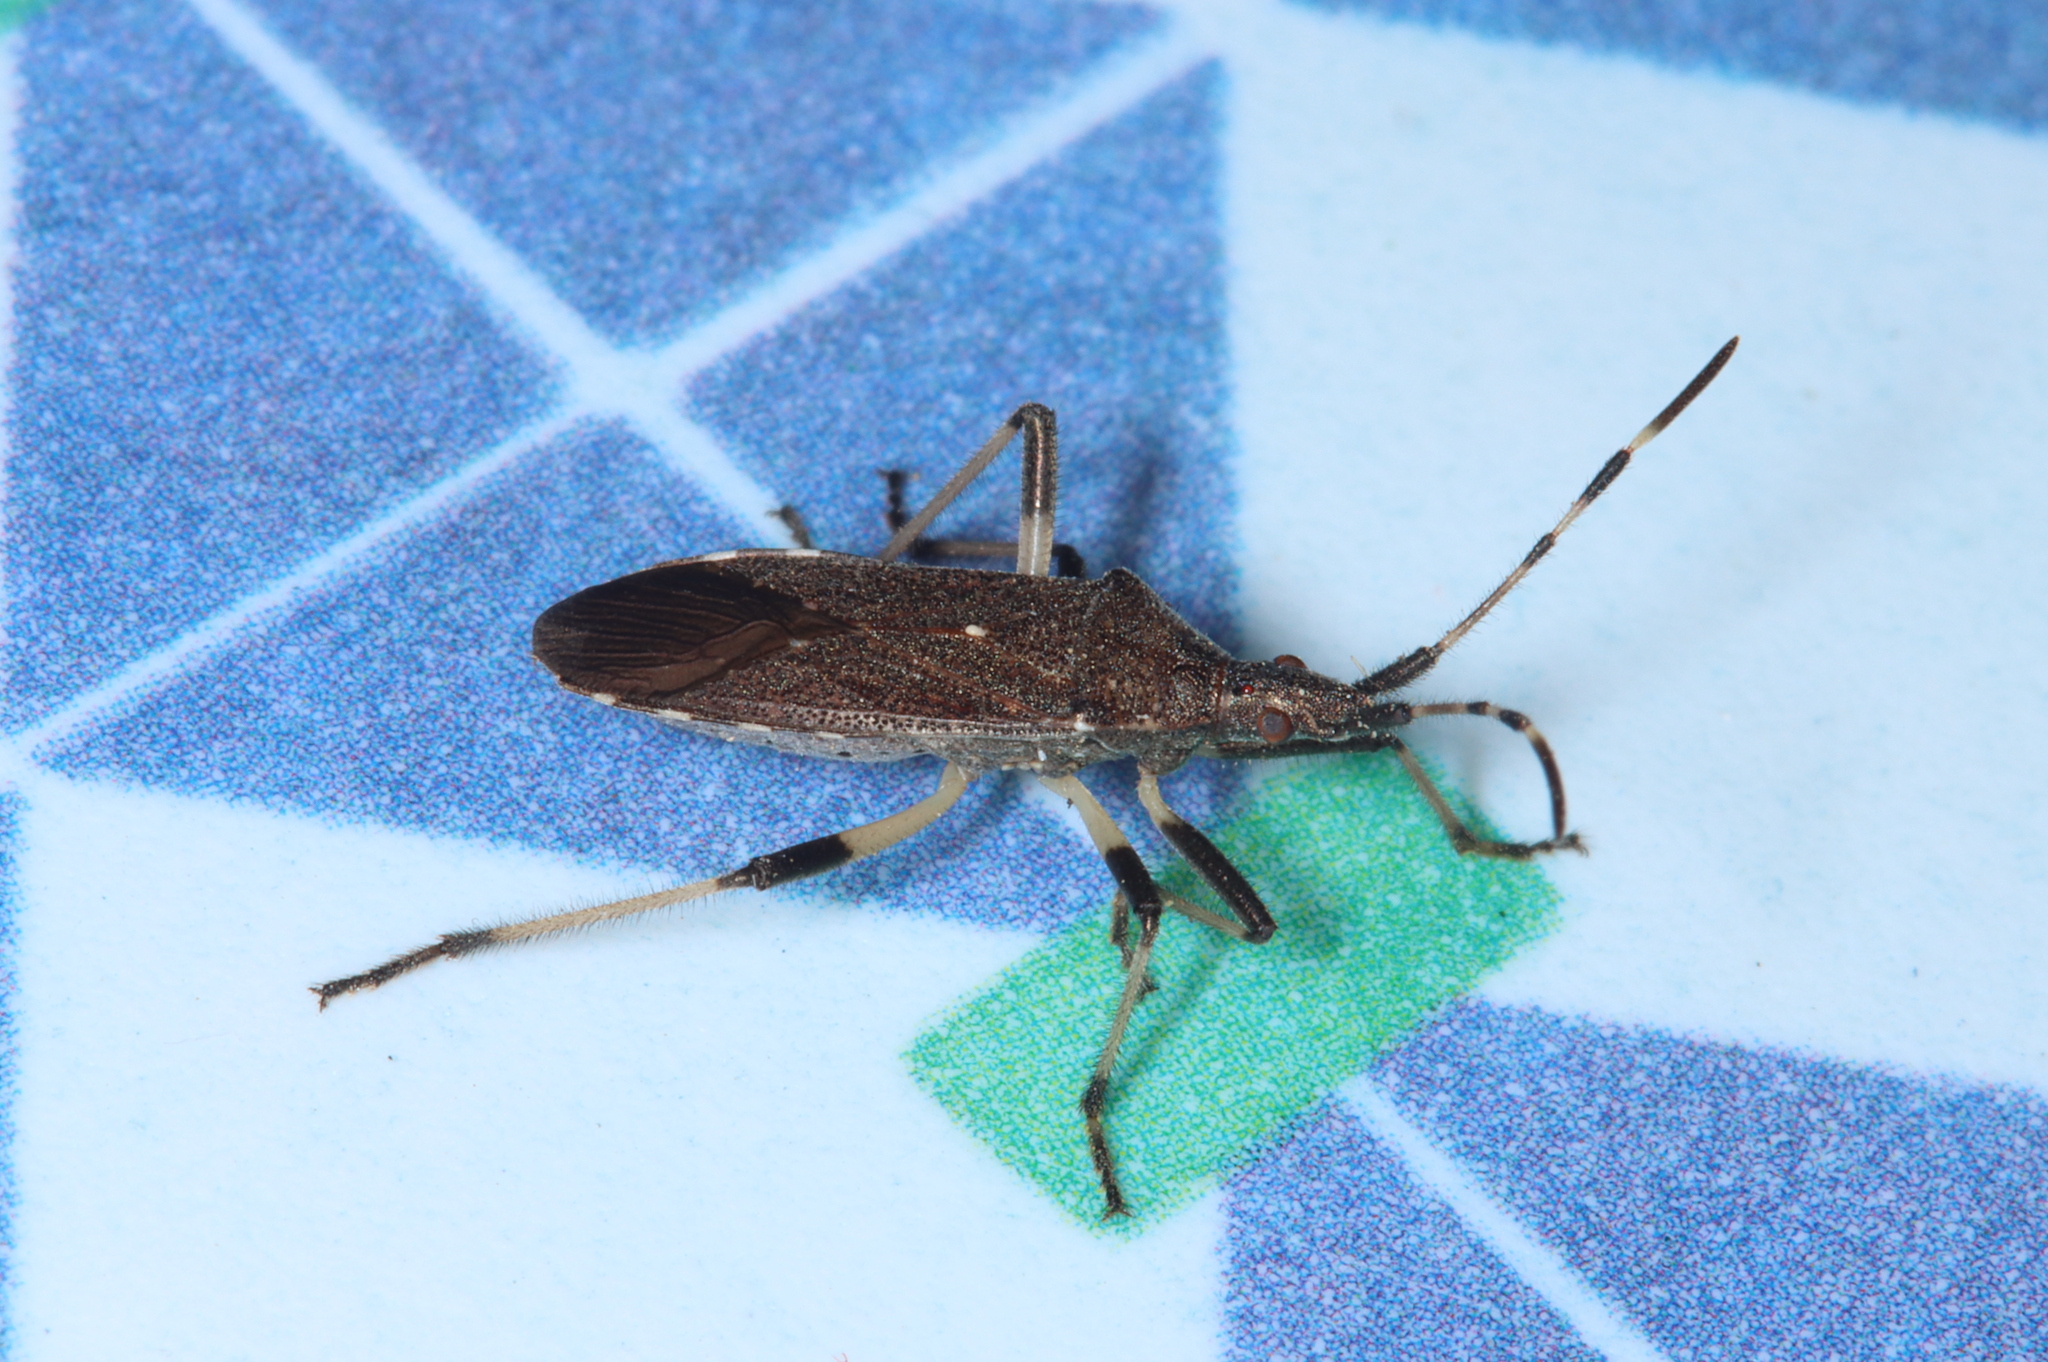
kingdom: Animalia
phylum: Arthropoda
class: Insecta
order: Hemiptera
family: Stenocephalidae
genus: Dicranocephalus
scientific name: Dicranocephalus albipes
